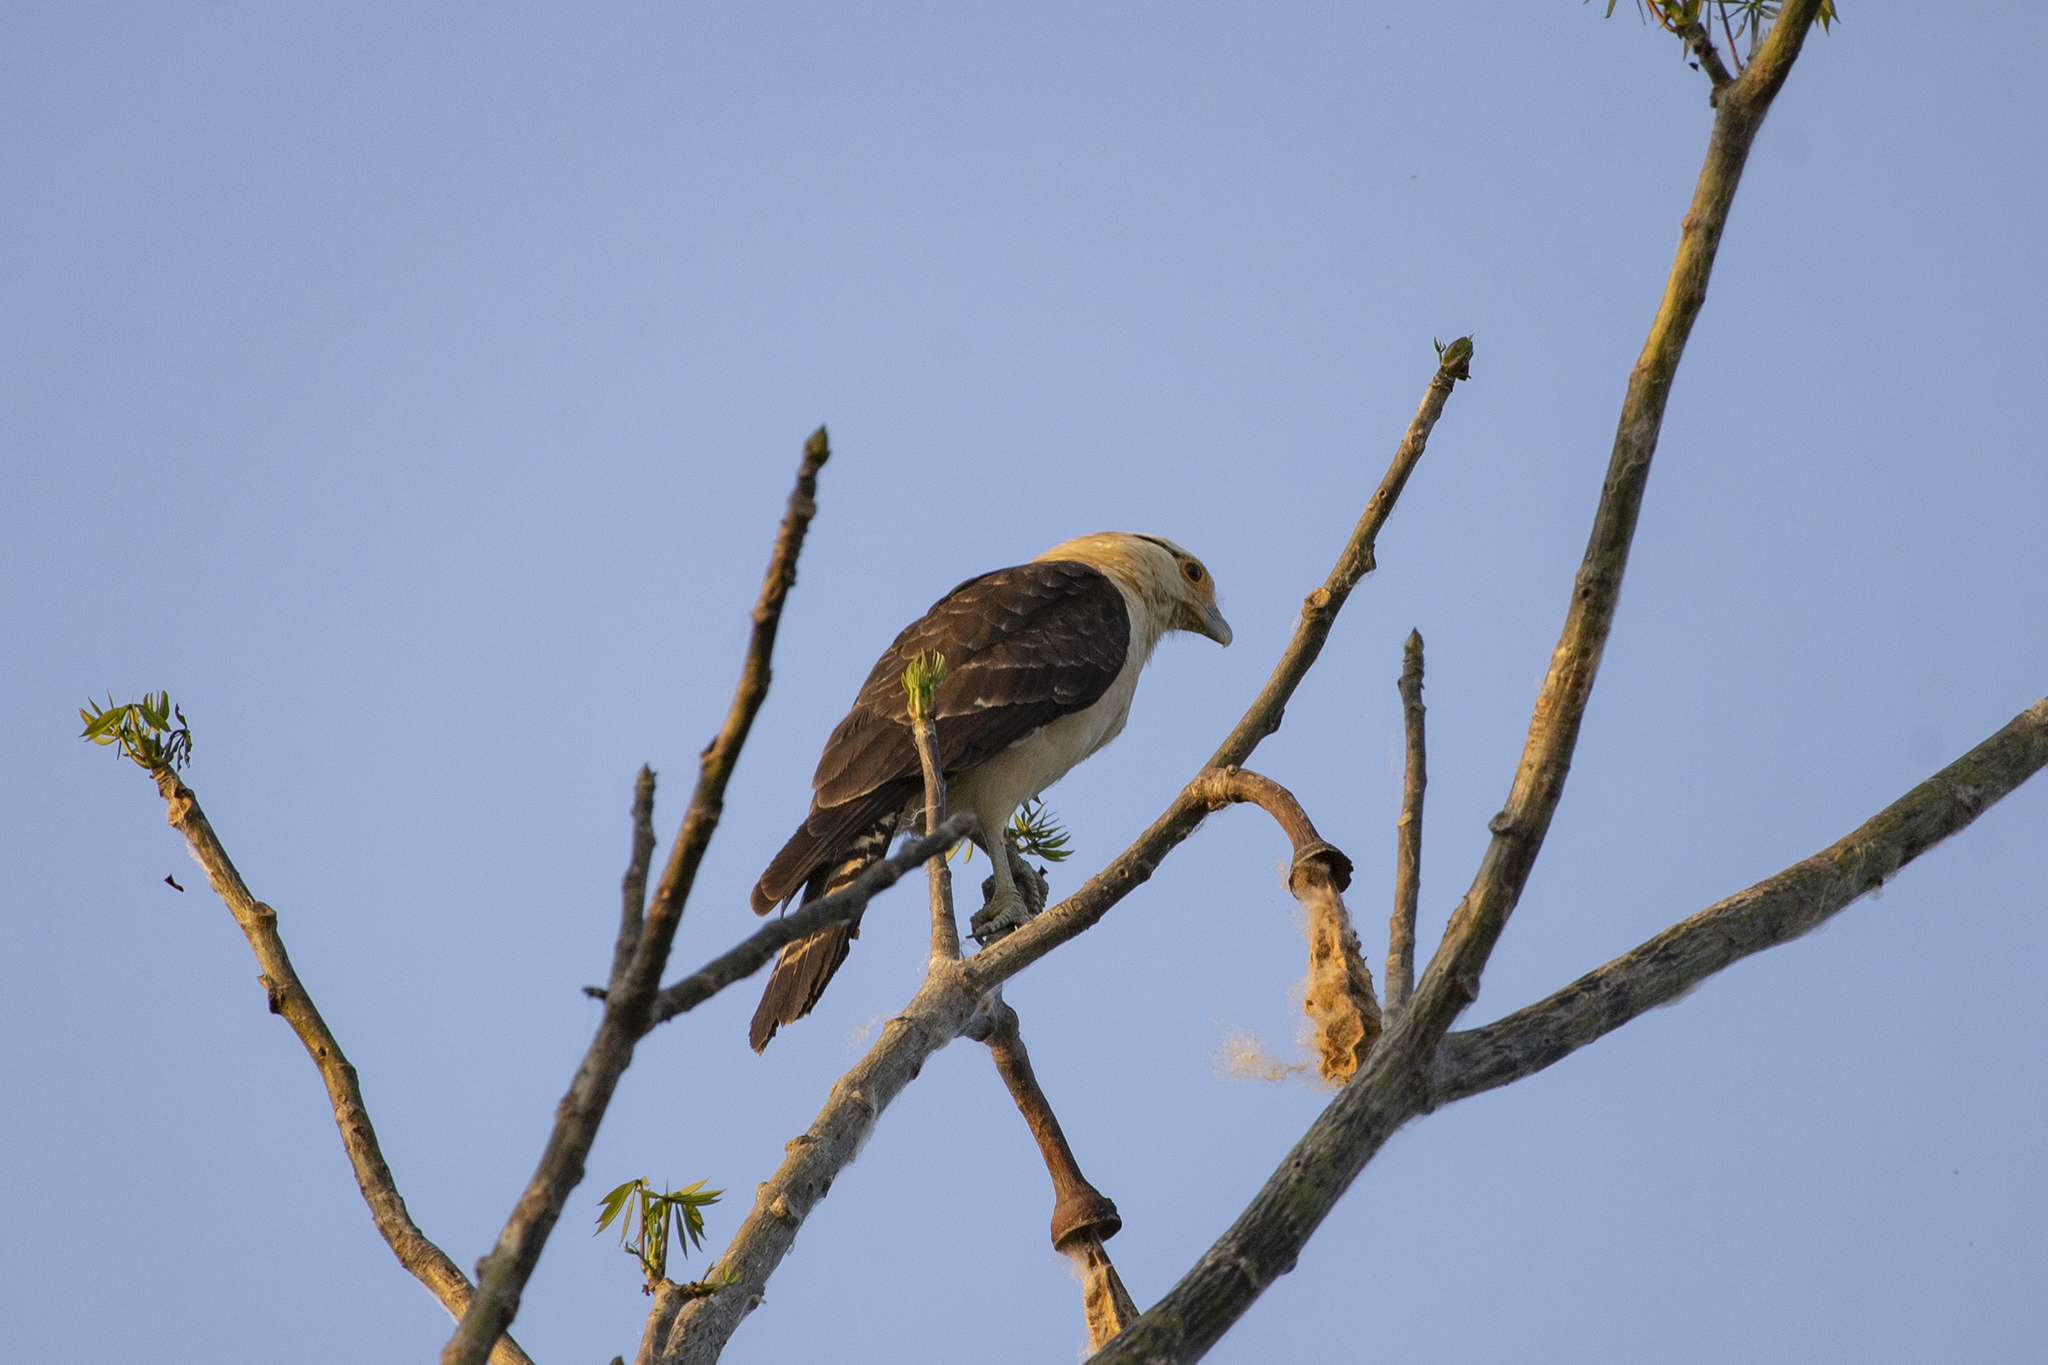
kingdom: Animalia
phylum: Chordata
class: Aves
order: Falconiformes
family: Falconidae
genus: Daptrius
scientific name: Daptrius
